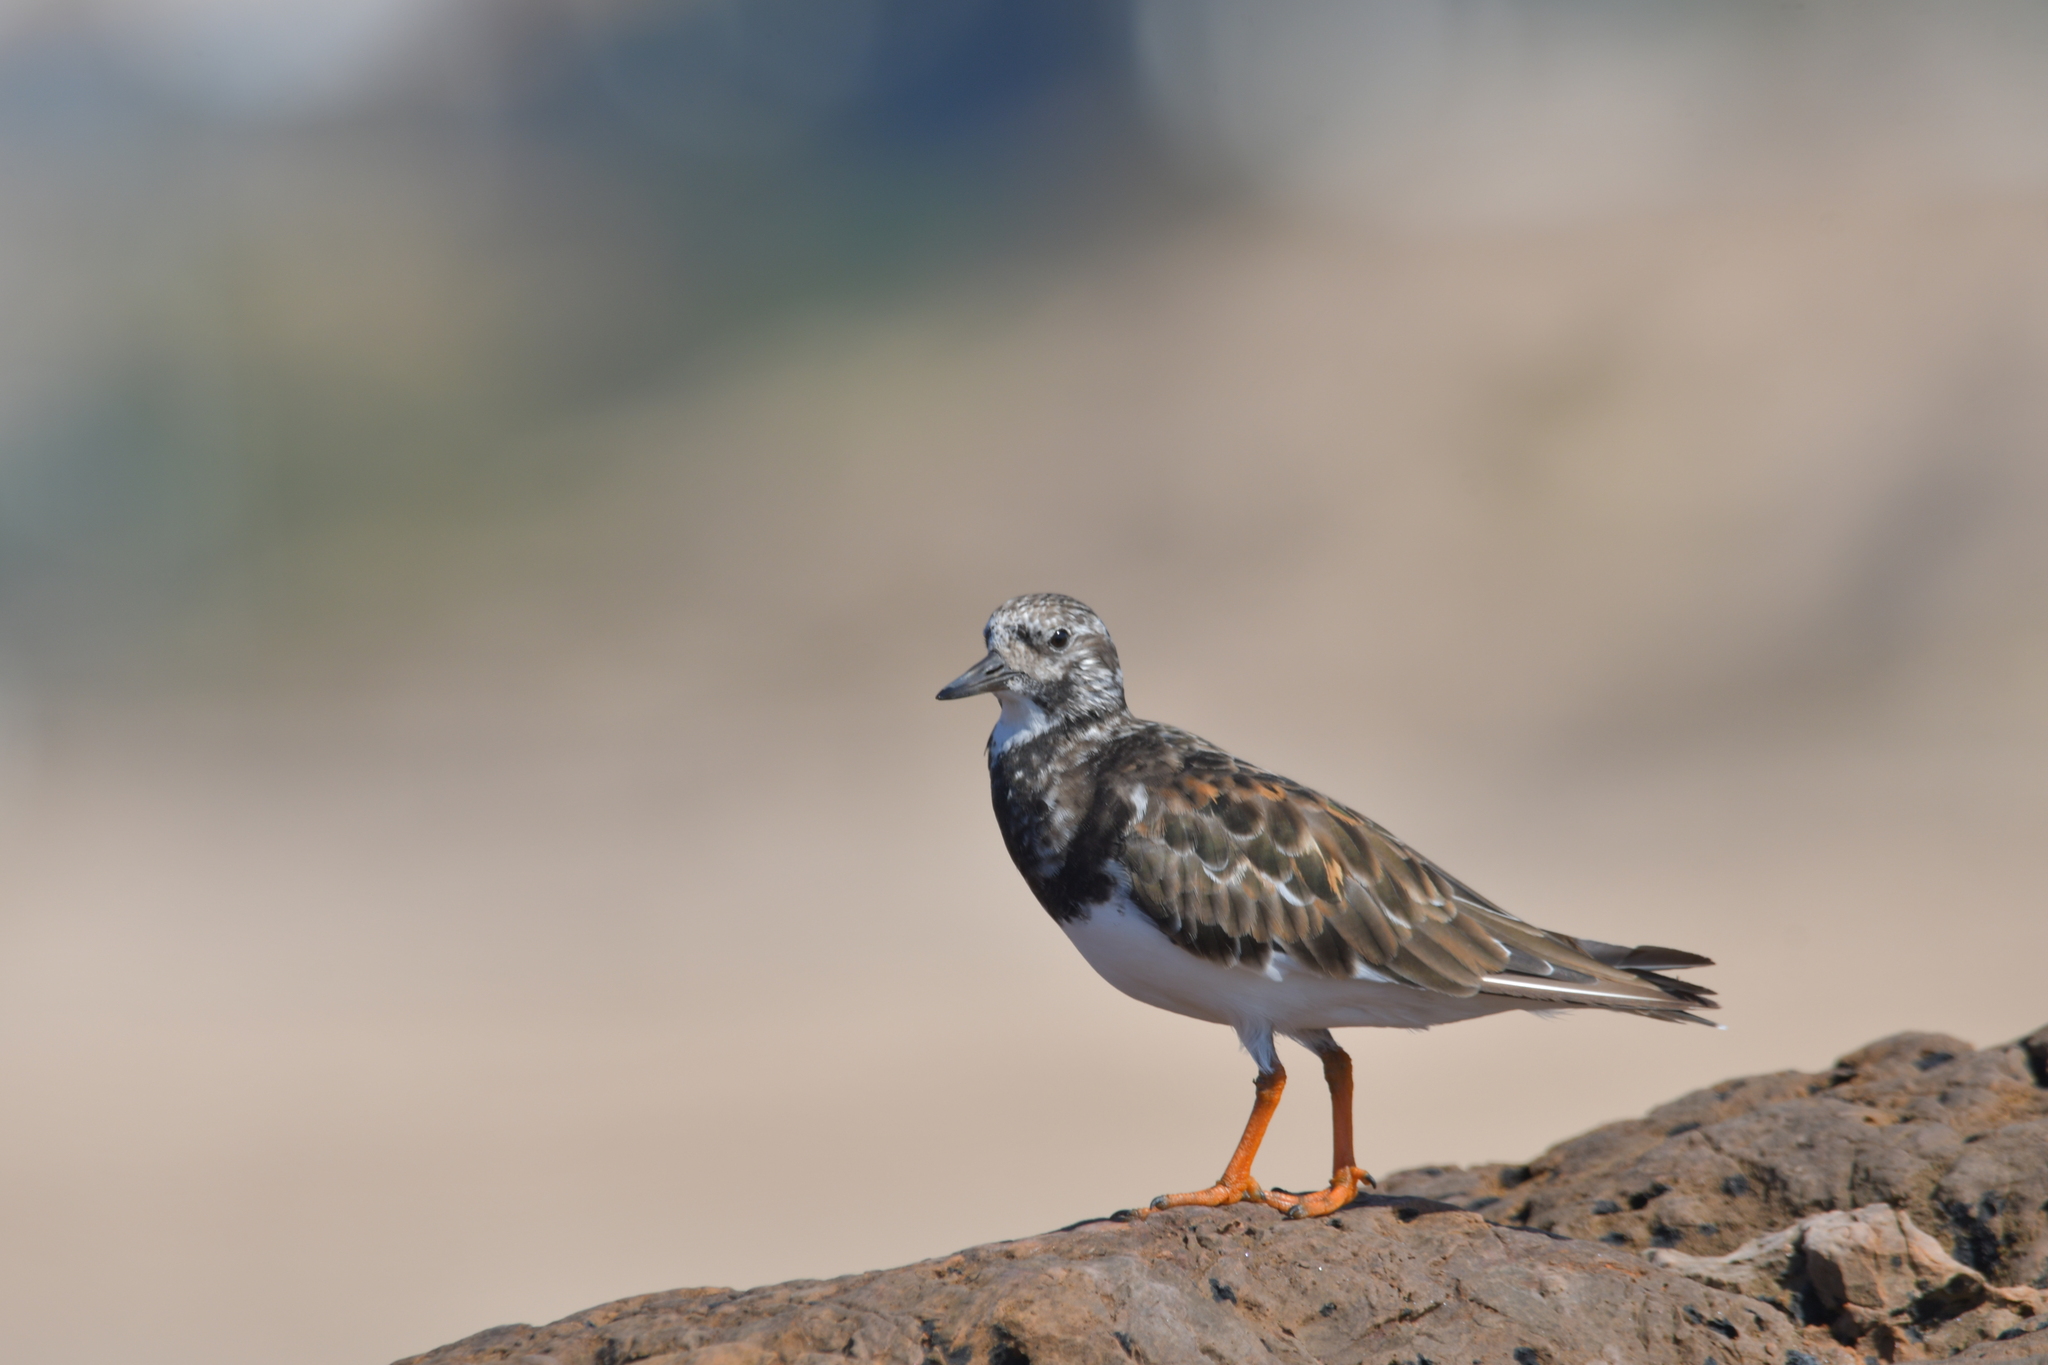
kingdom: Animalia
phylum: Chordata
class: Aves
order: Charadriiformes
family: Scolopacidae
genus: Arenaria
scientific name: Arenaria interpres
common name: Ruddy turnstone
